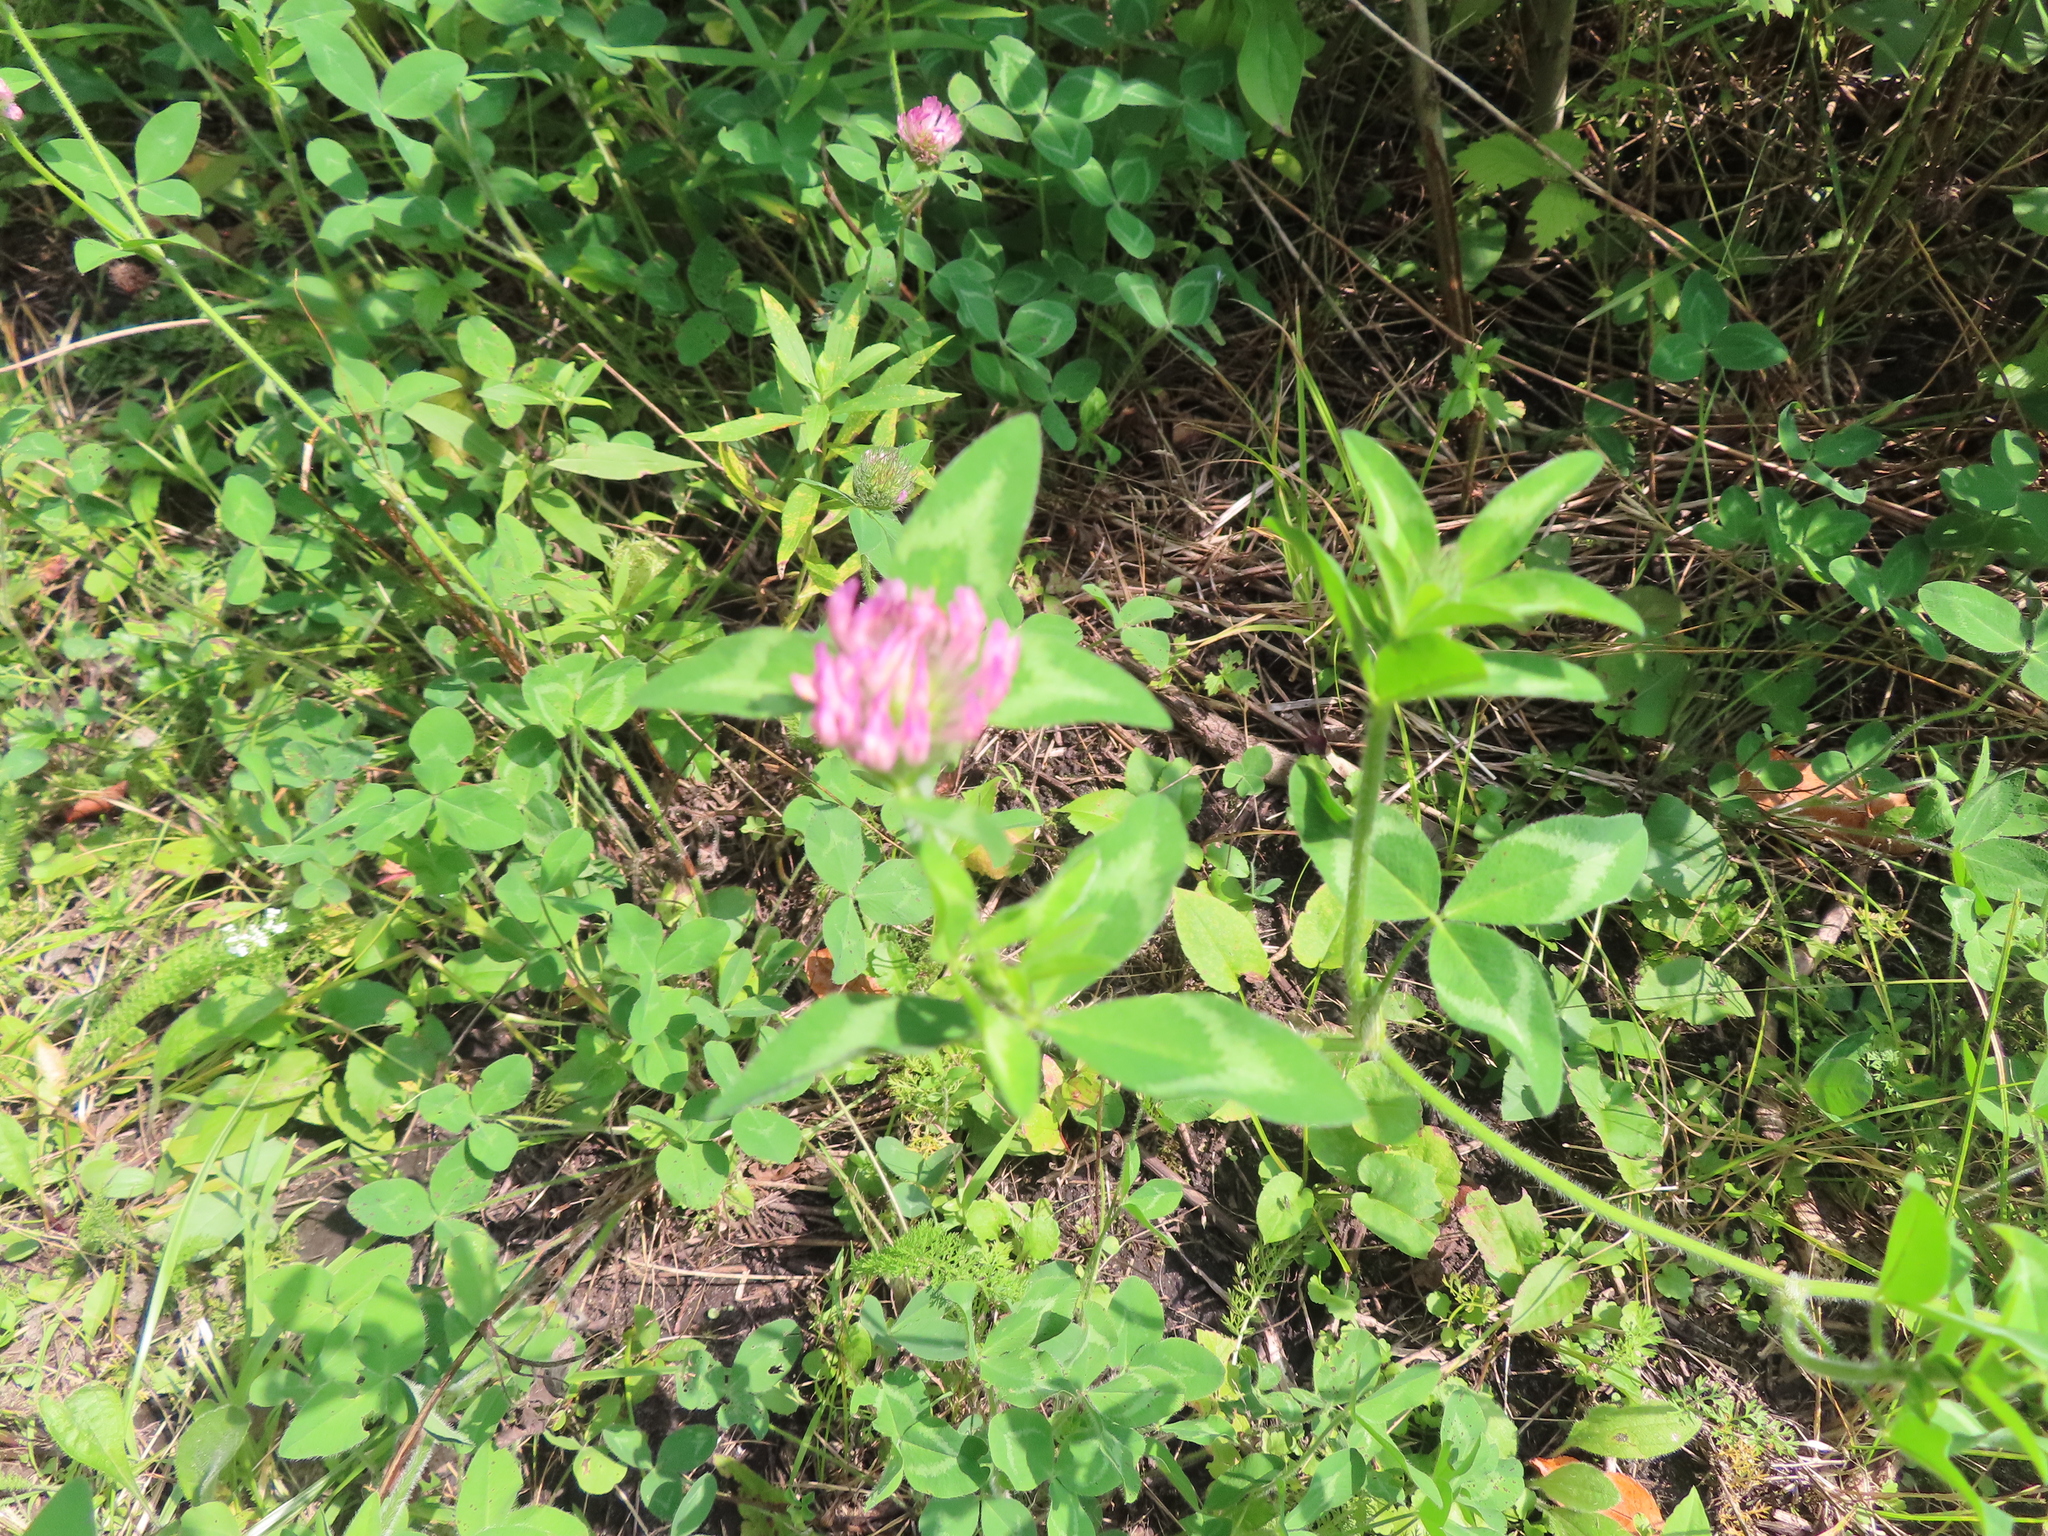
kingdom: Plantae
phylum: Tracheophyta
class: Magnoliopsida
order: Fabales
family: Fabaceae
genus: Trifolium
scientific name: Trifolium pratense
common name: Red clover
